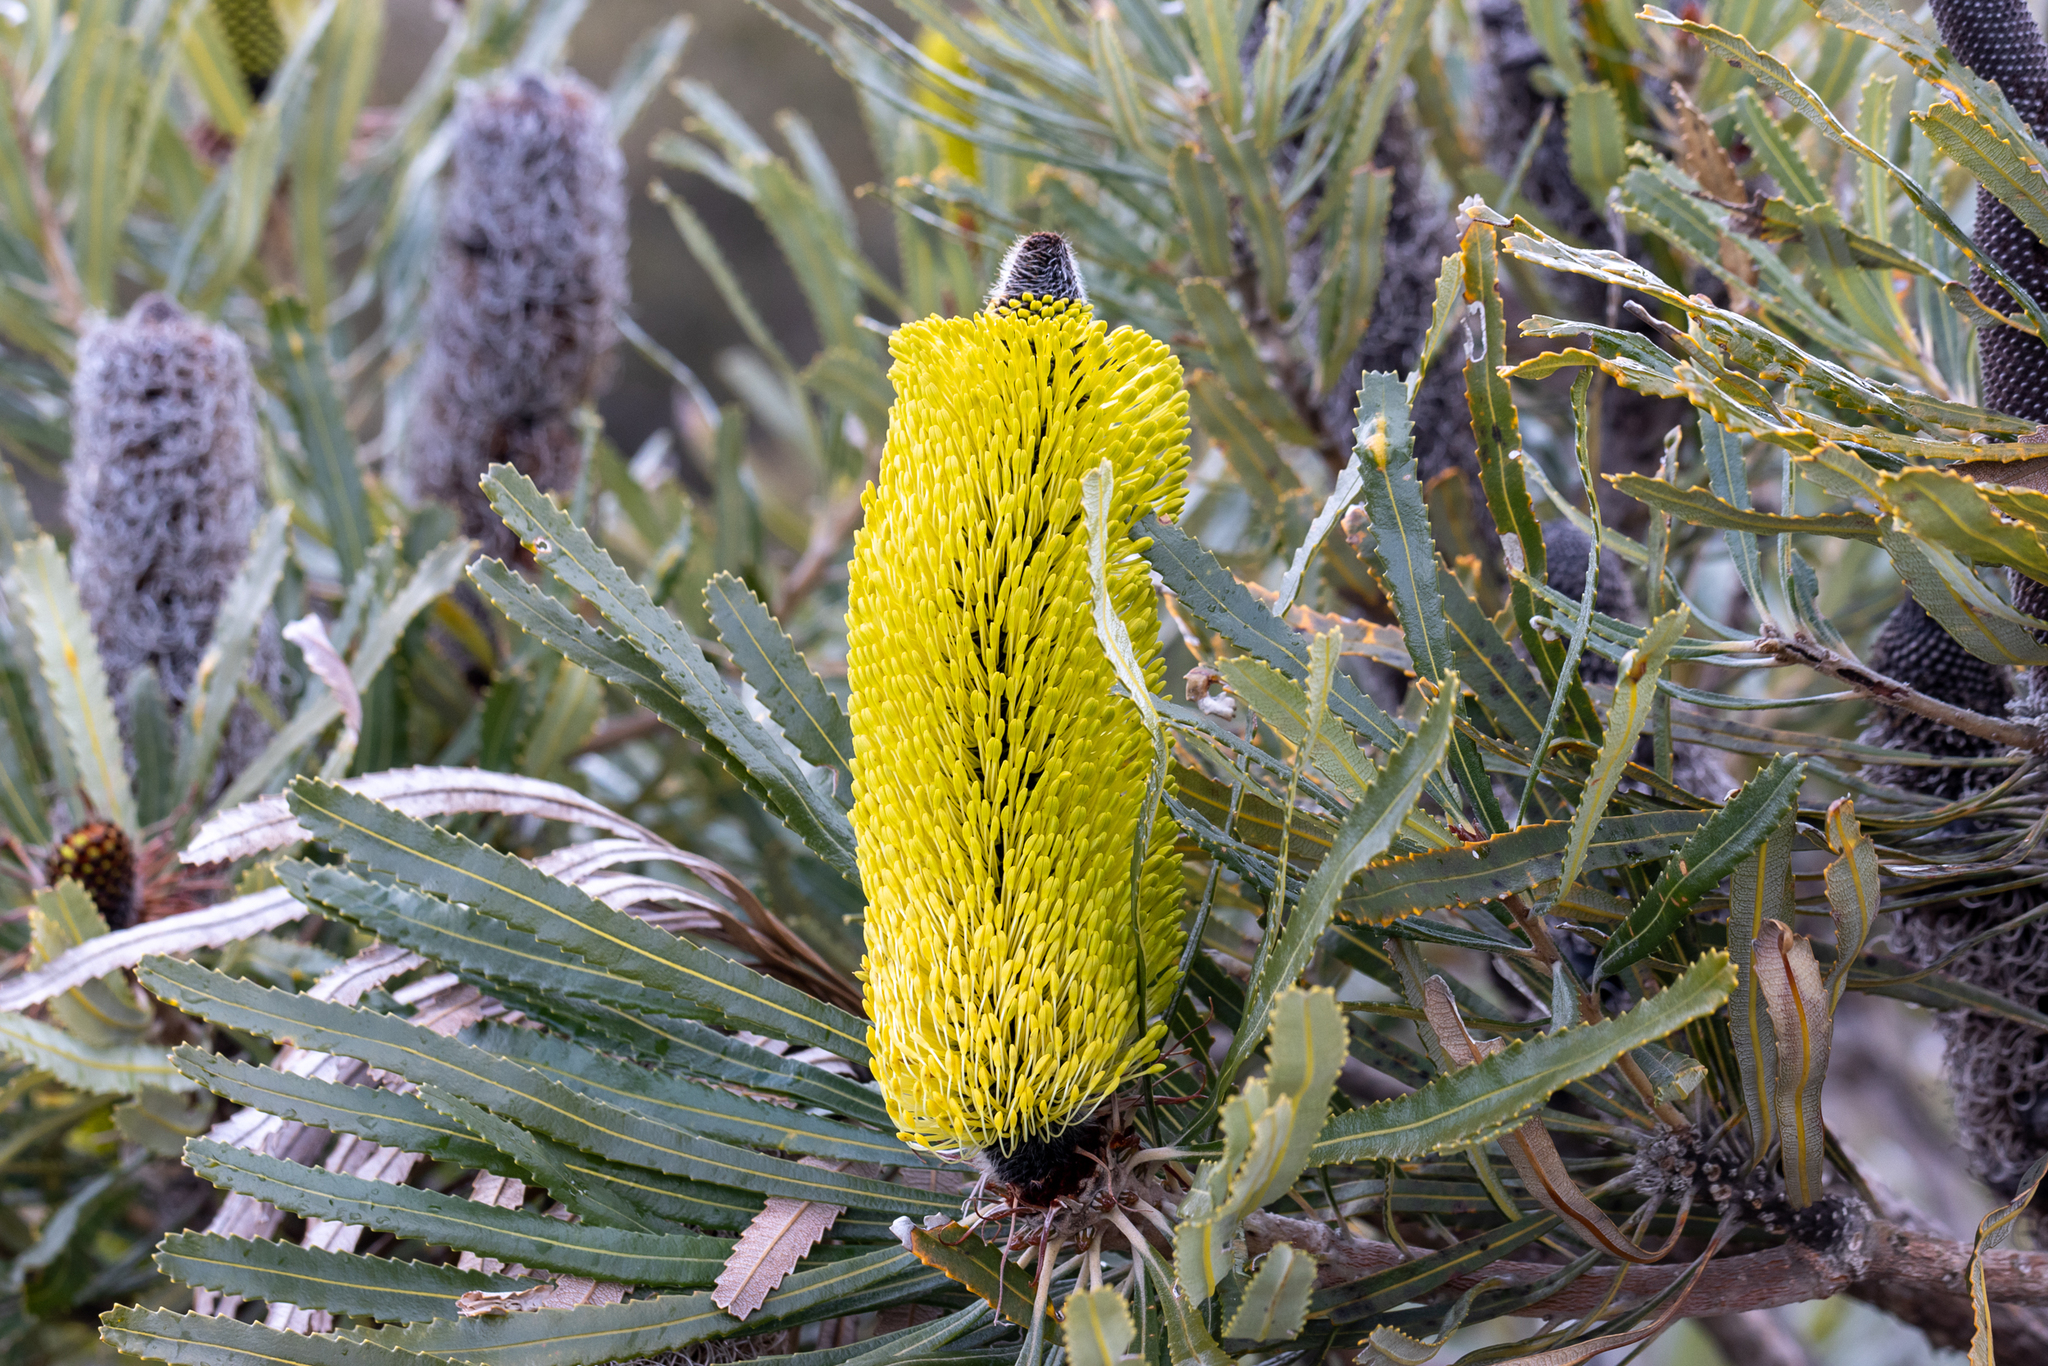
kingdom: Plantae
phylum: Tracheophyta
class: Magnoliopsida
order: Proteales
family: Proteaceae
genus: Banksia
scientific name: Banksia attenuata
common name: Coast banksia
